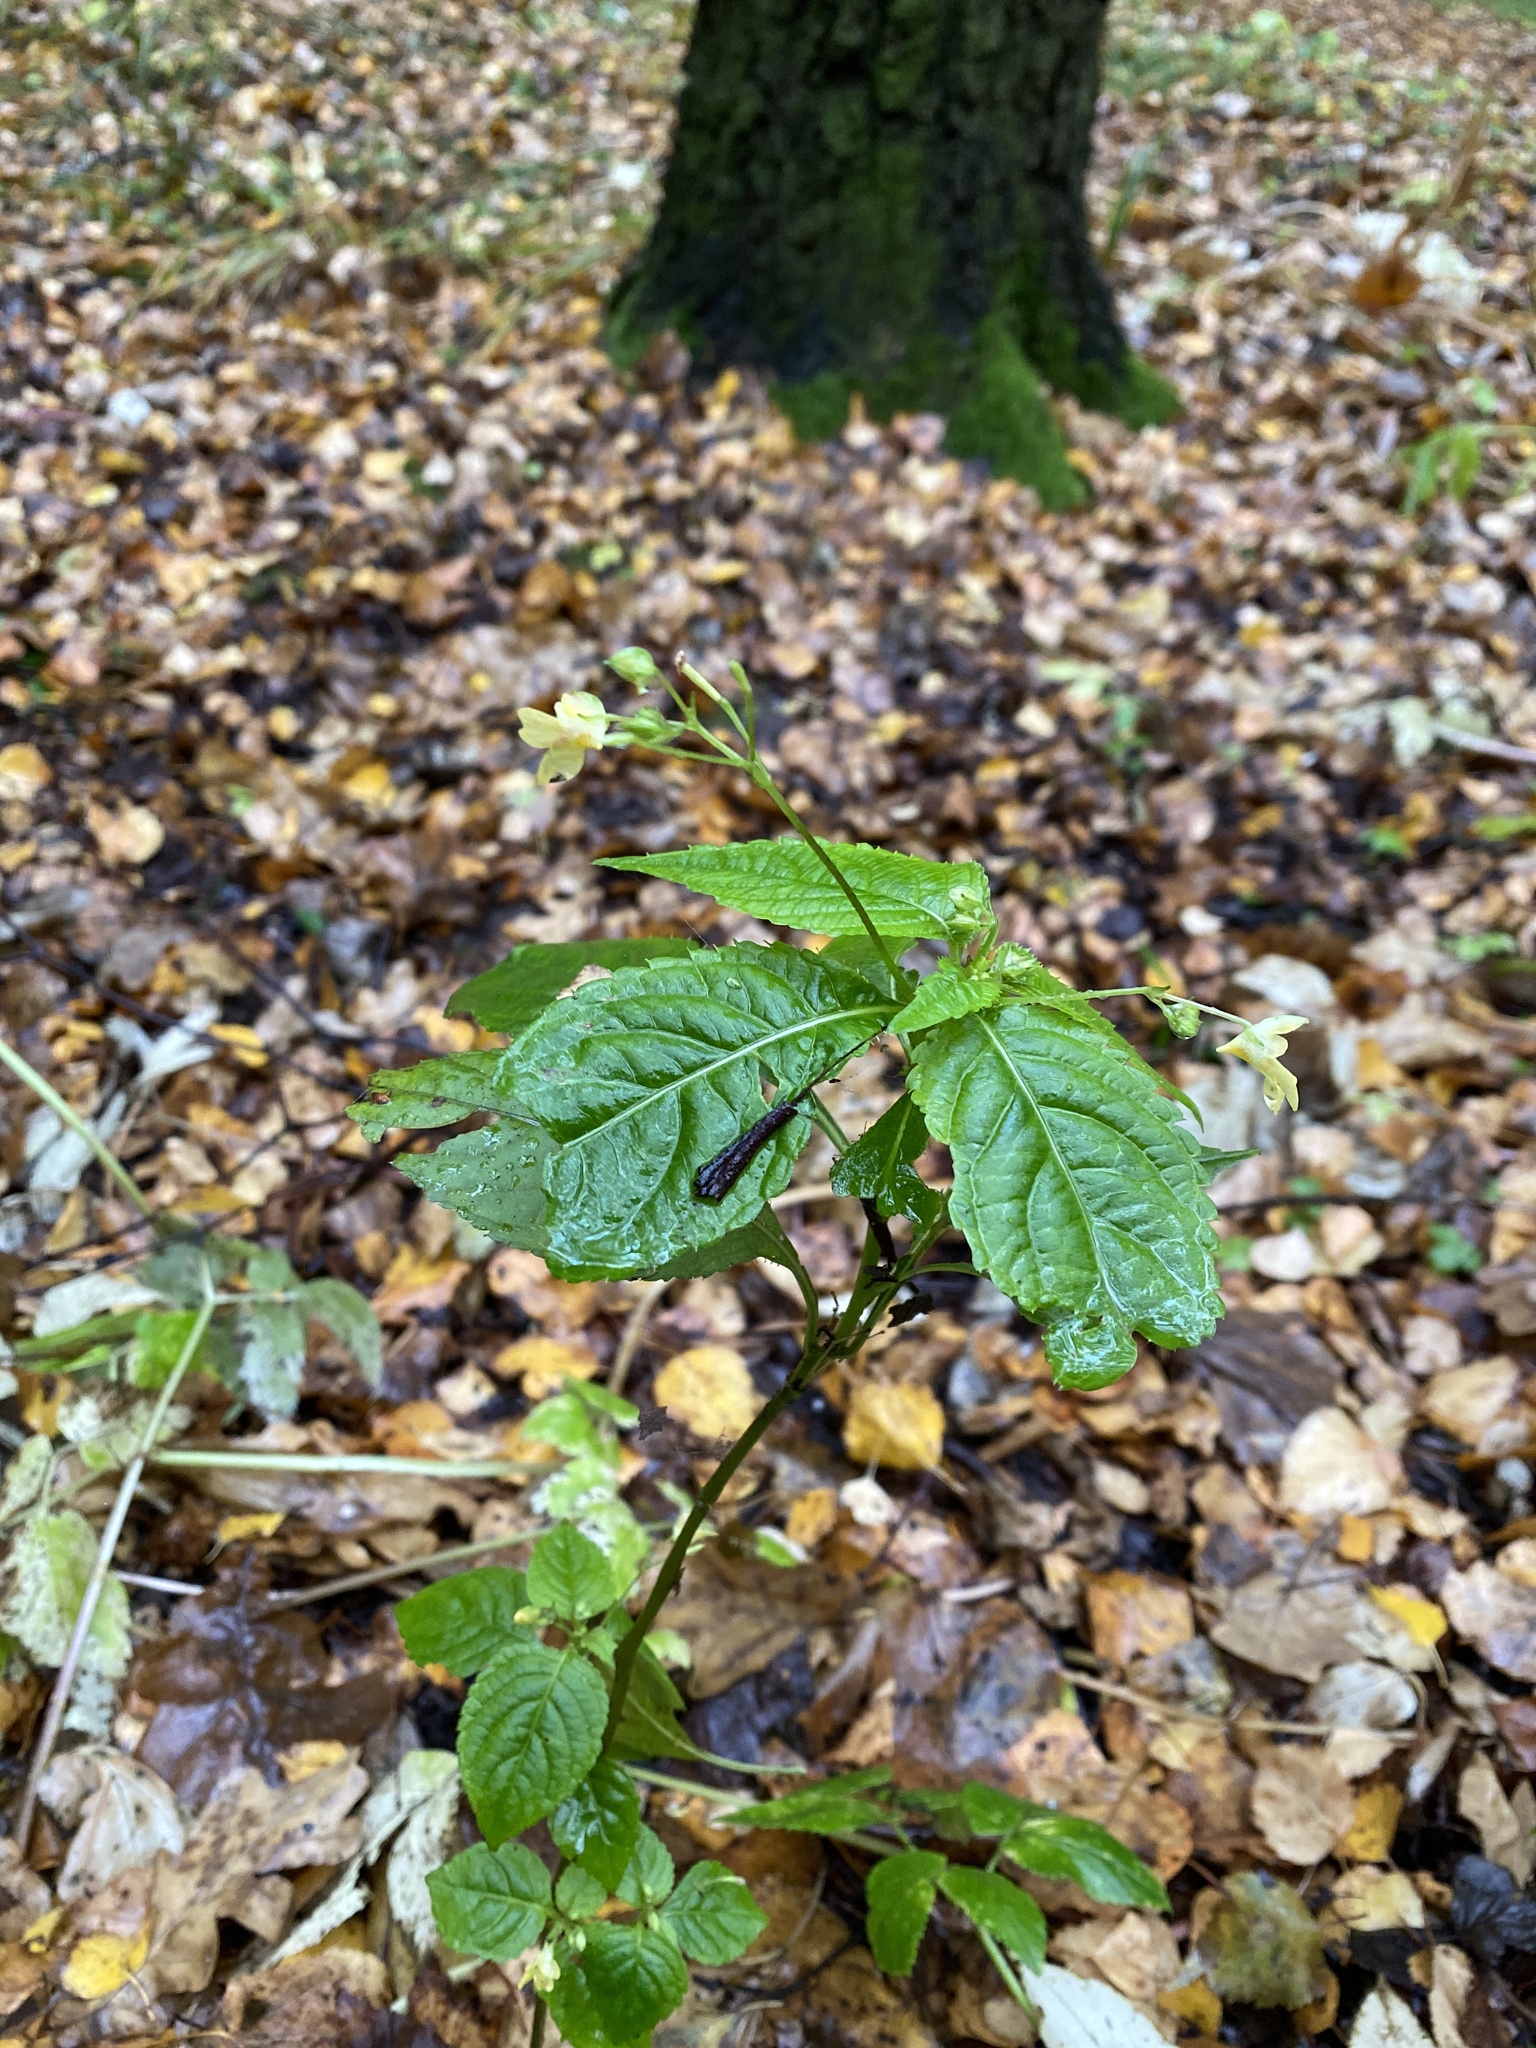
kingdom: Plantae
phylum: Tracheophyta
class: Magnoliopsida
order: Ericales
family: Balsaminaceae
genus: Impatiens
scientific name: Impatiens parviflora
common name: Small balsam
